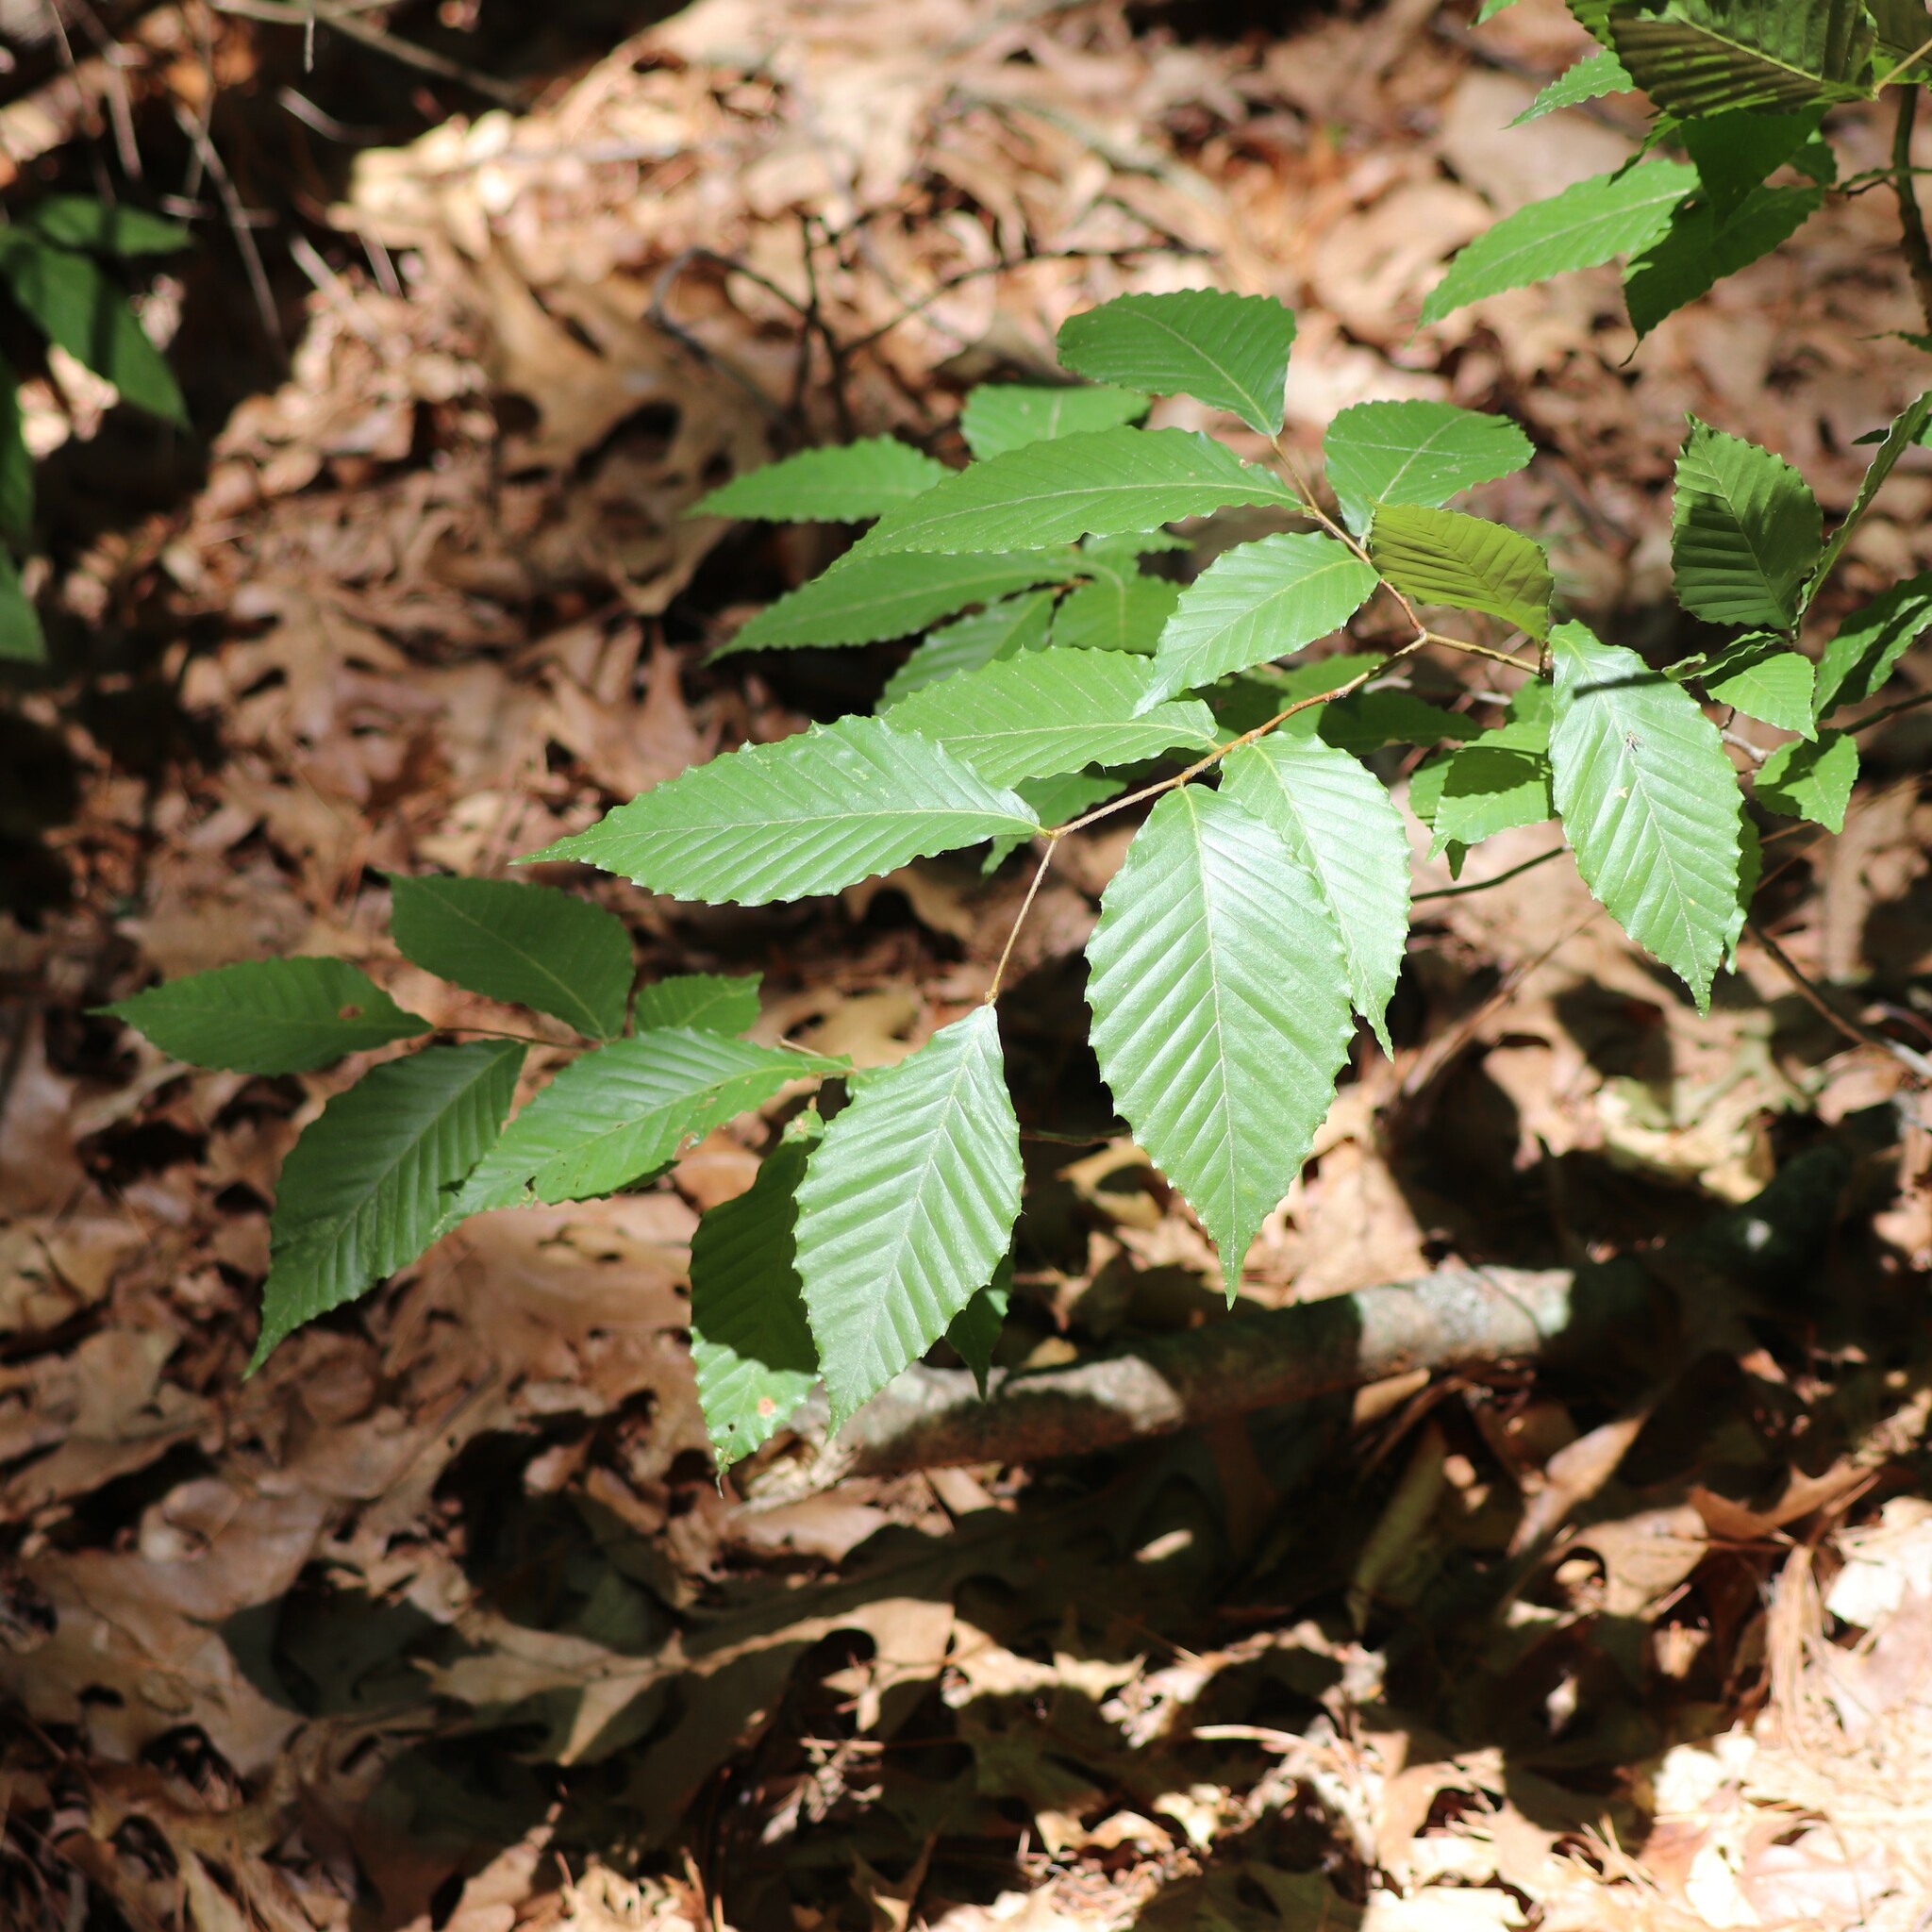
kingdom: Plantae
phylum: Tracheophyta
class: Magnoliopsida
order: Fagales
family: Fagaceae
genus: Fagus
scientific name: Fagus grandifolia
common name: American beech
